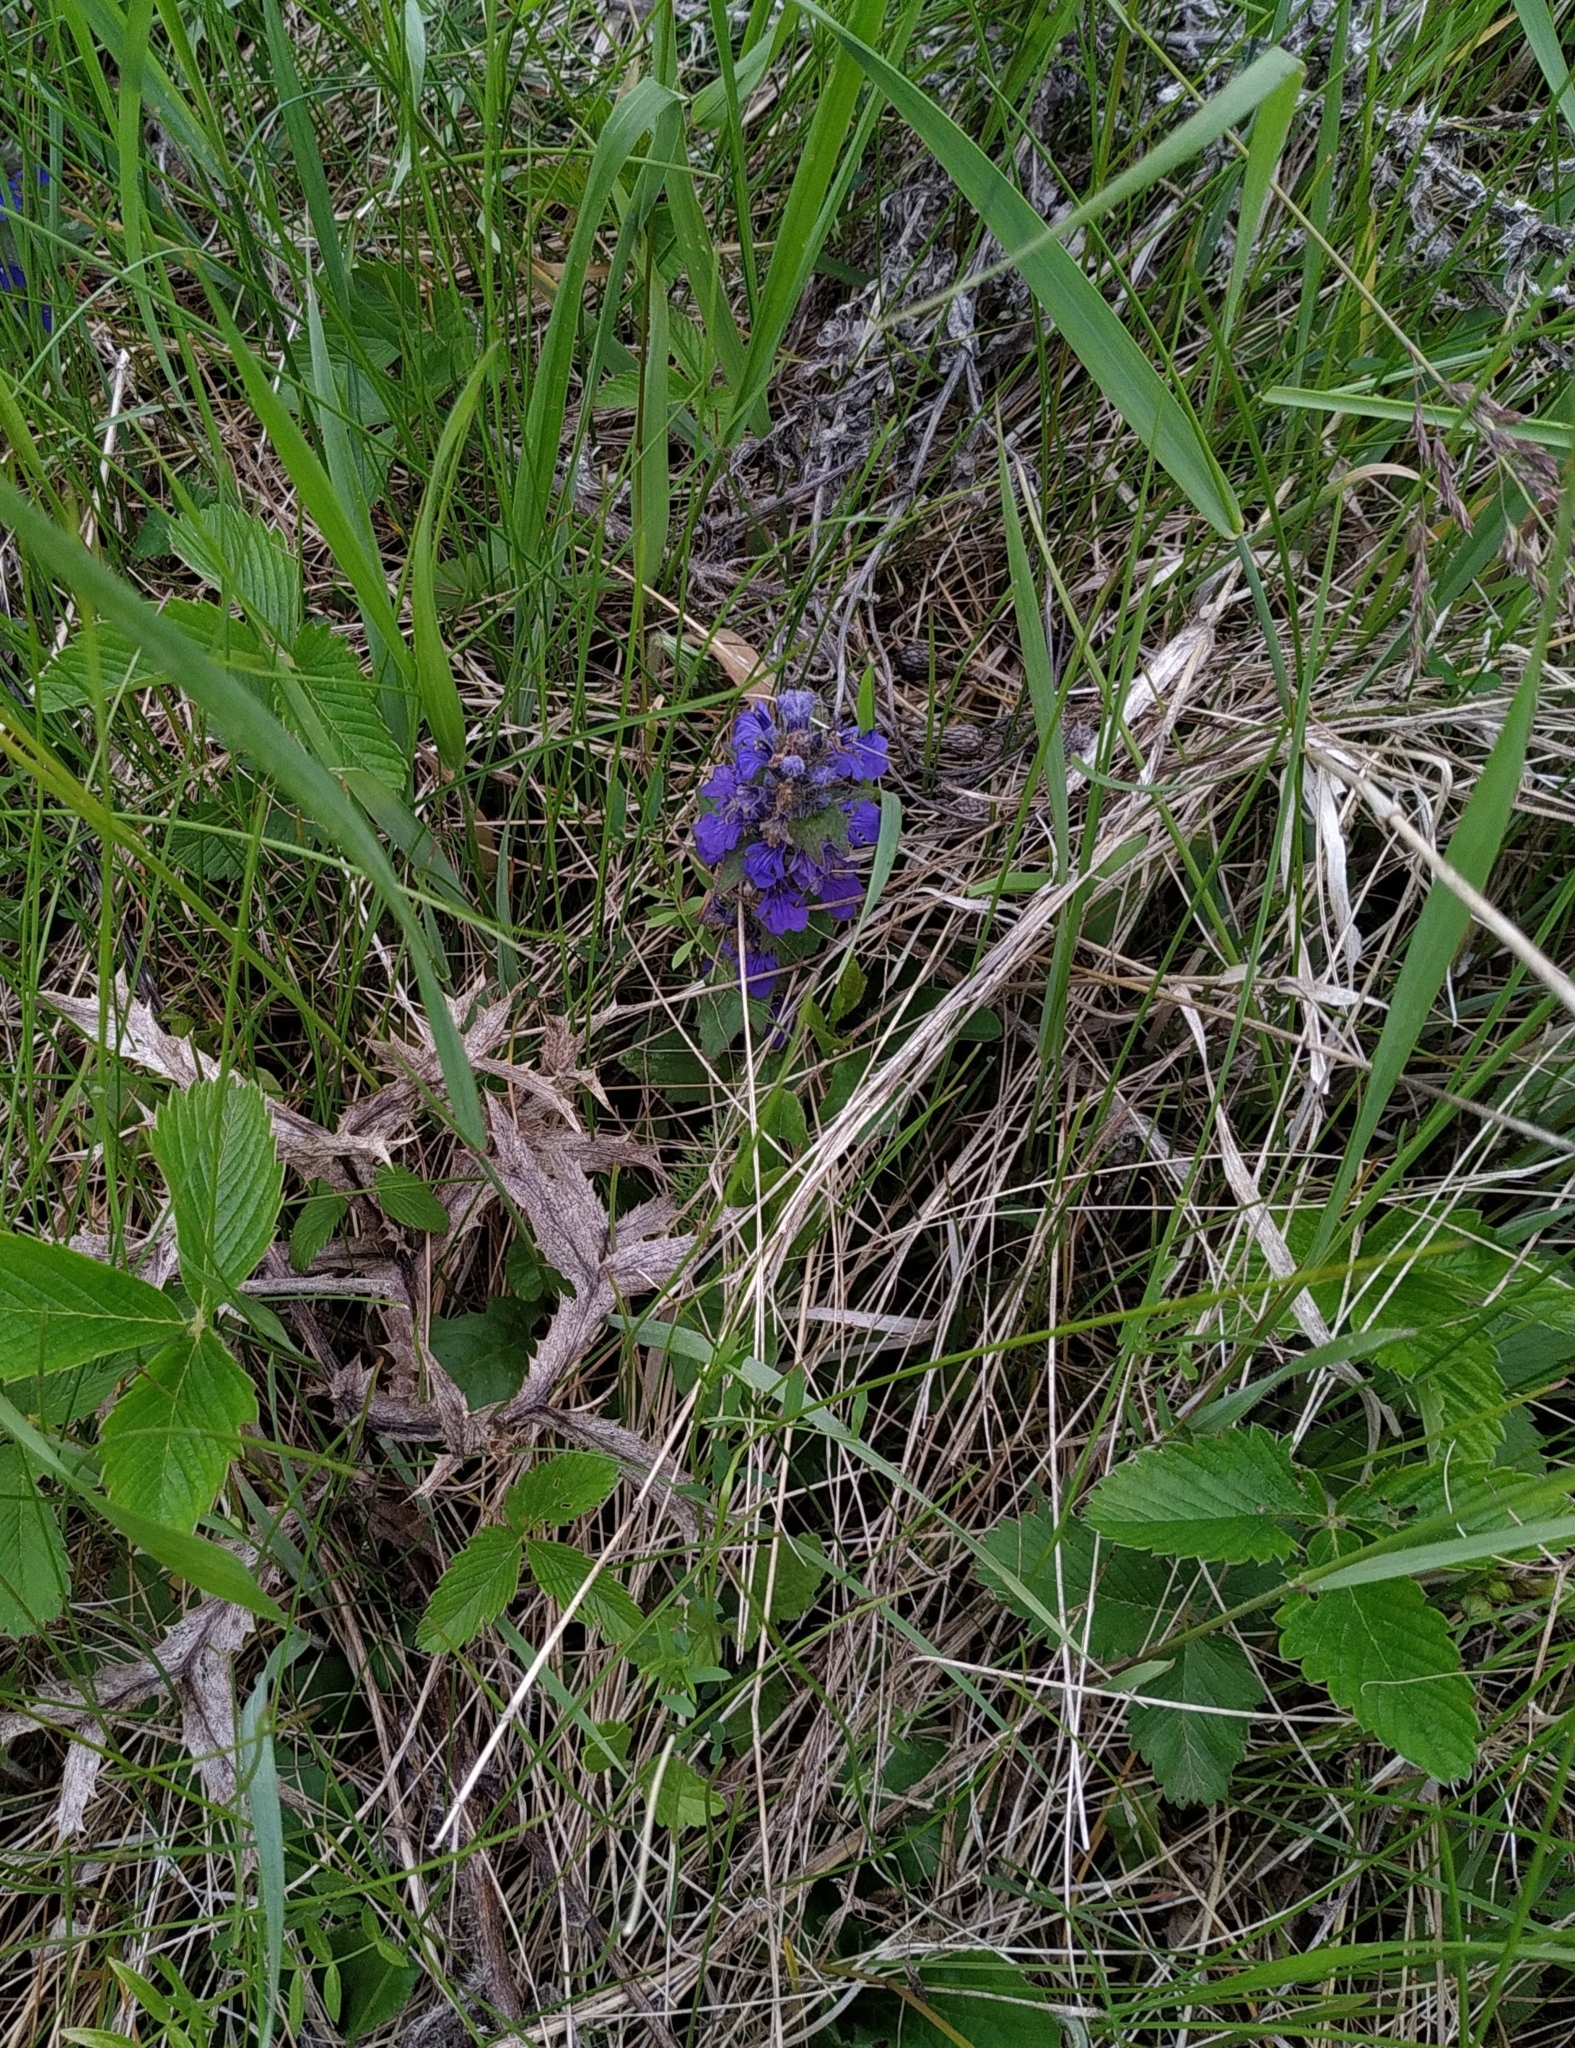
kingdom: Plantae
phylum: Tracheophyta
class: Magnoliopsida
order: Lamiales
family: Lamiaceae
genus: Ajuga
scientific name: Ajuga genevensis
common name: Blue bugle
